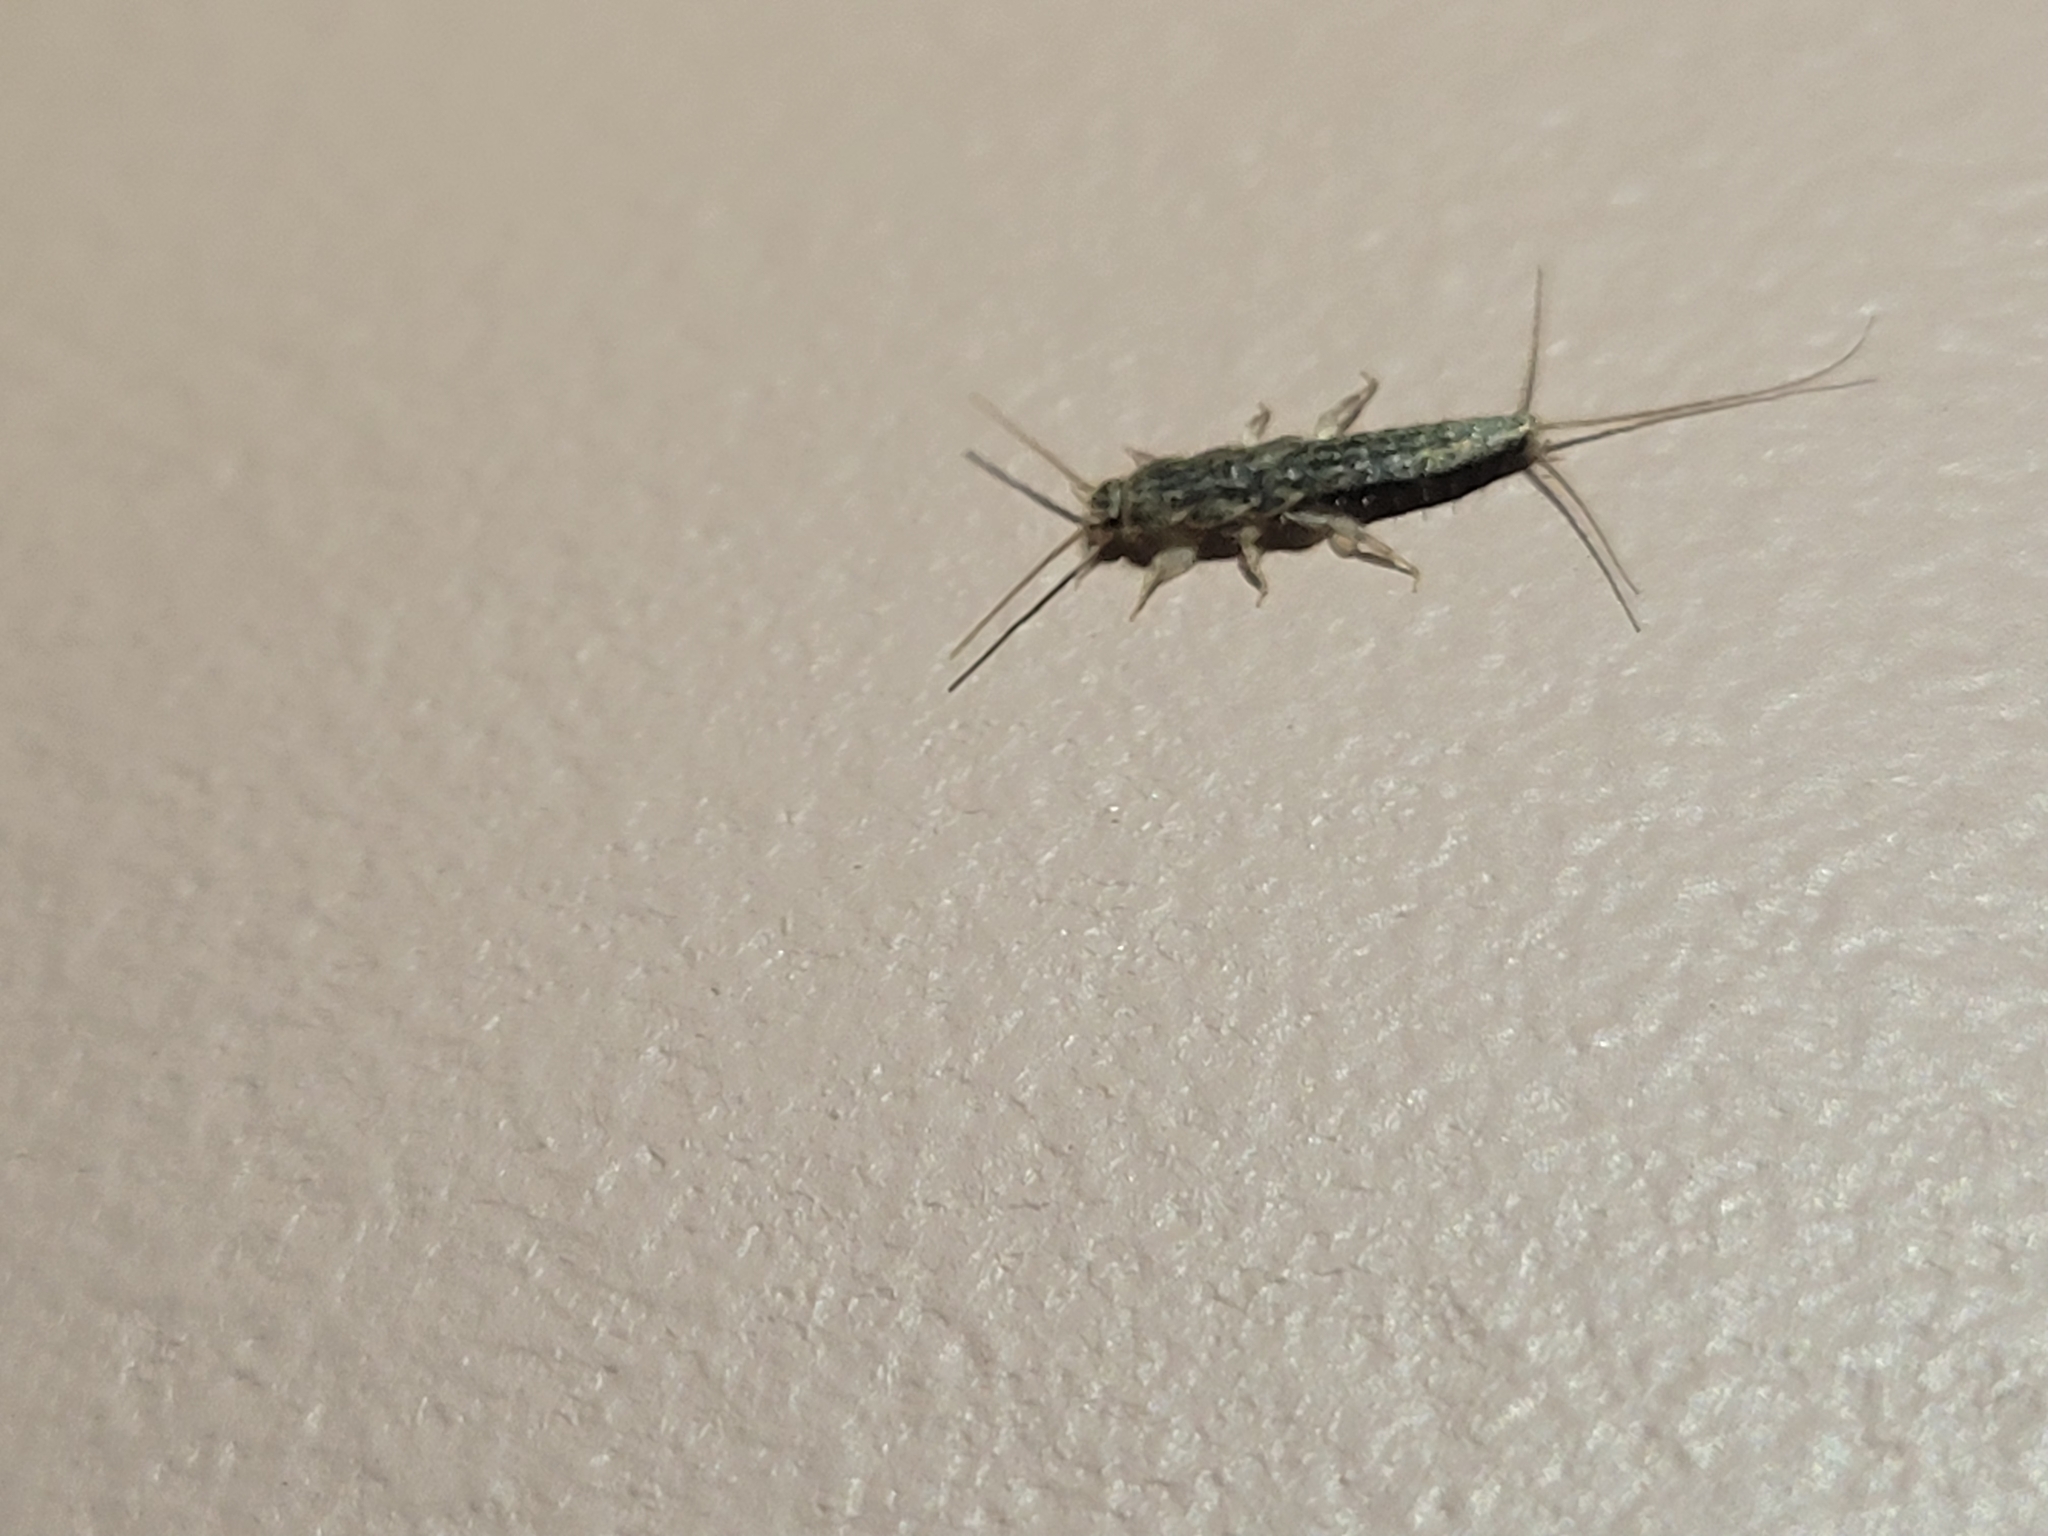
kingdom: Animalia
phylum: Arthropoda
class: Insecta
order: Zygentoma
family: Lepismatidae
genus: Ctenolepisma
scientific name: Ctenolepisma lineata
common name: Four-lined silverfish
